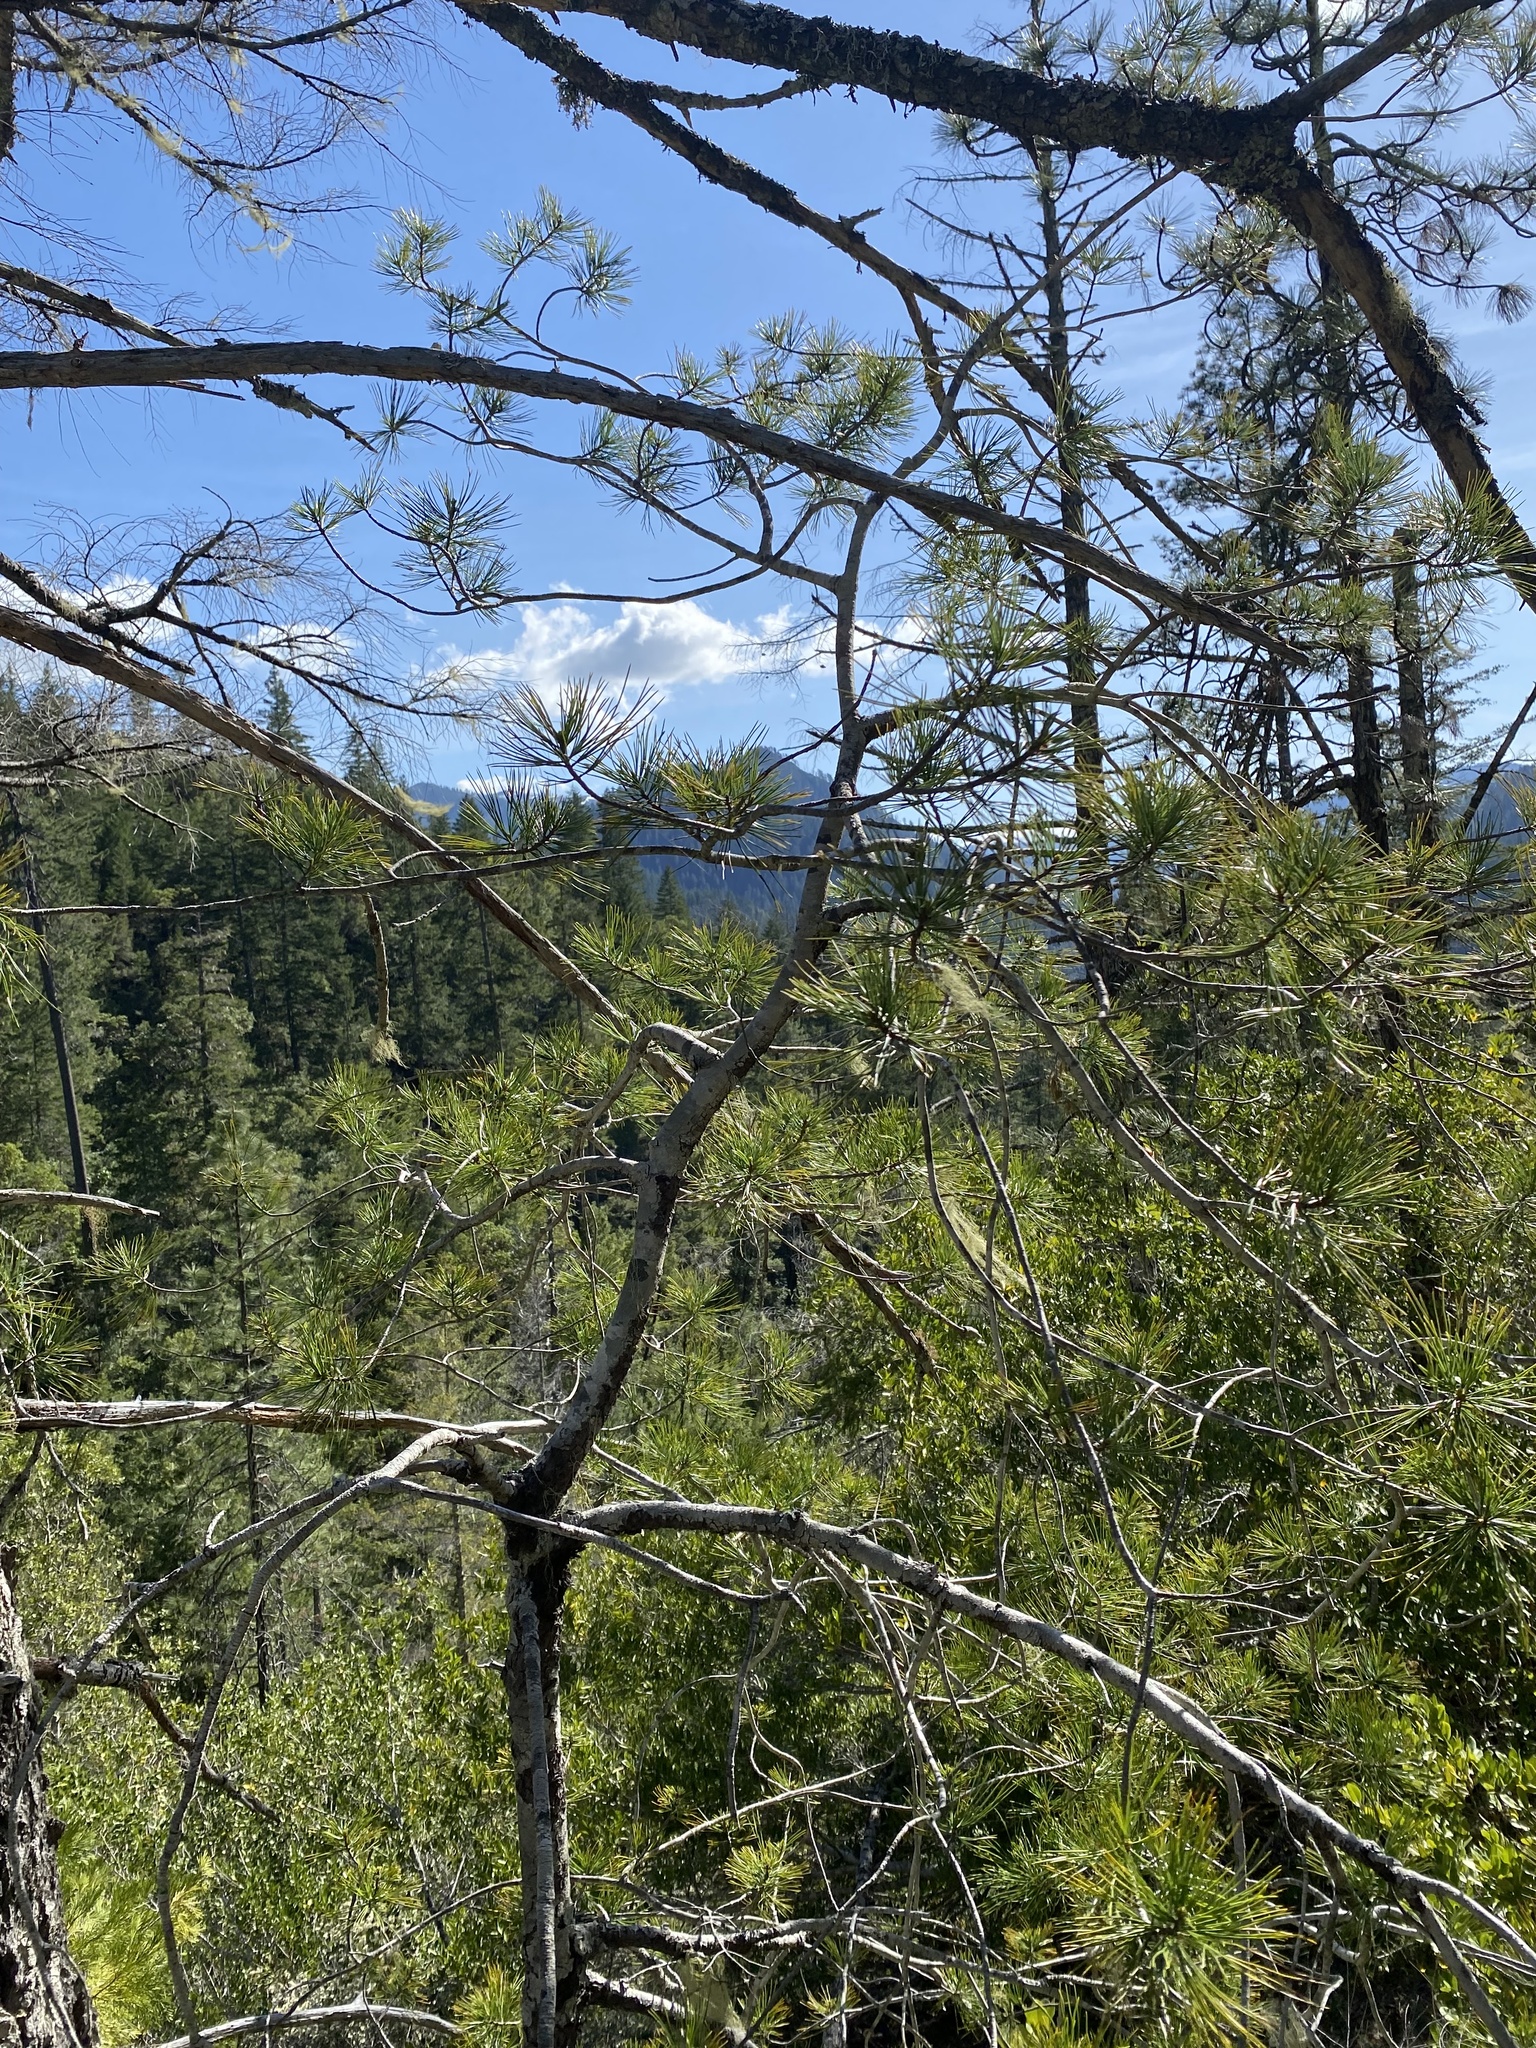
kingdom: Plantae
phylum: Tracheophyta
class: Pinopsida
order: Pinales
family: Pinaceae
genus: Pinus
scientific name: Pinus lambertiana
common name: Sugar pine
